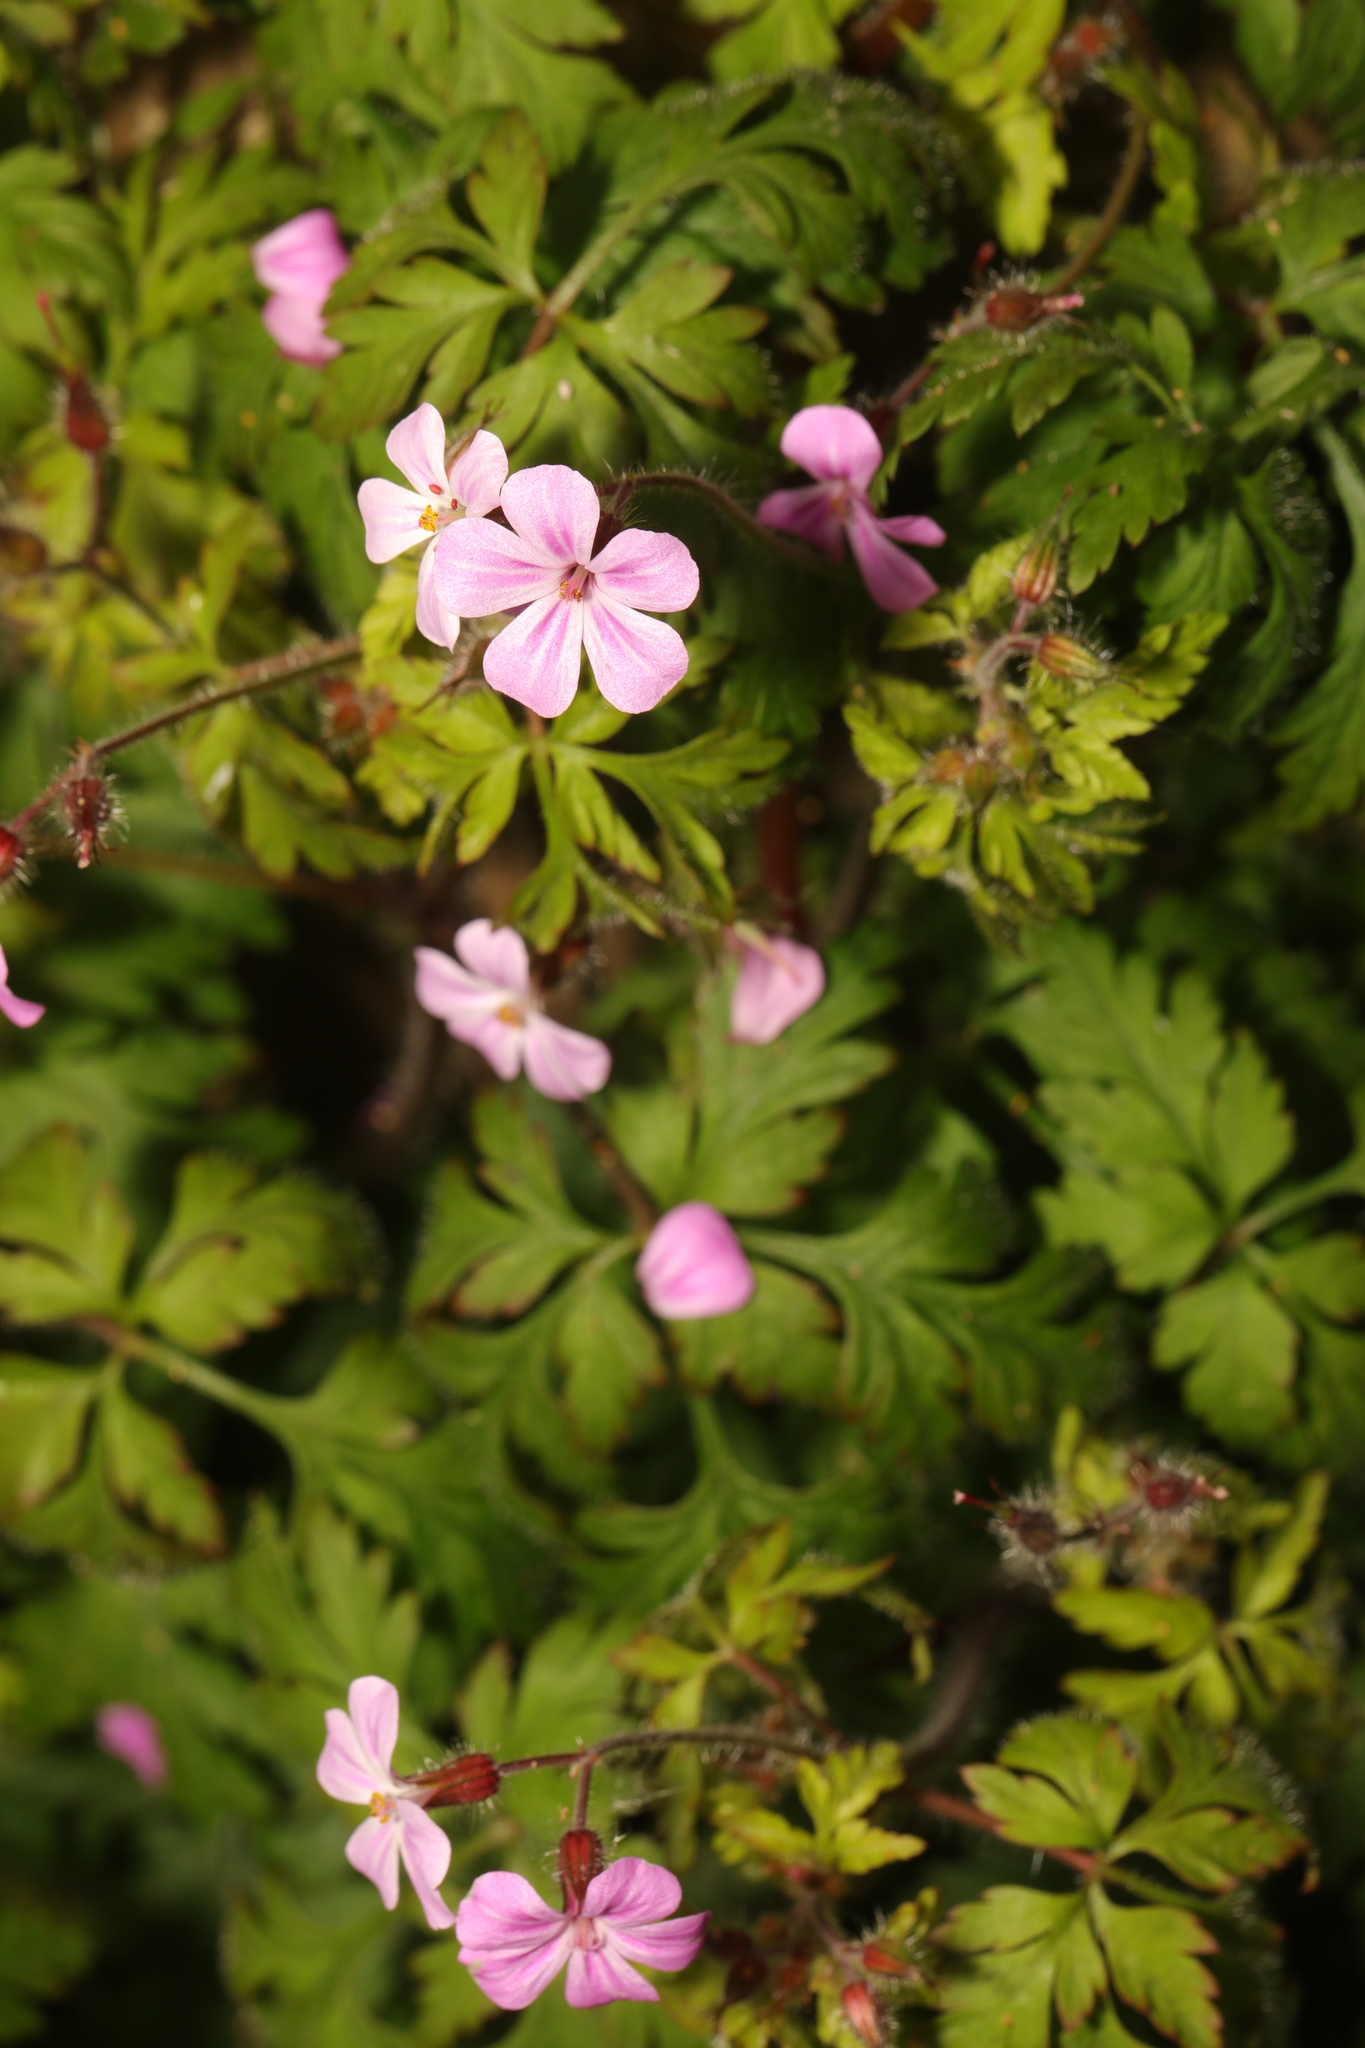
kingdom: Plantae
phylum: Tracheophyta
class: Magnoliopsida
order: Geraniales
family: Geraniaceae
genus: Geranium
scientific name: Geranium robertianum
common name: Herb-robert
